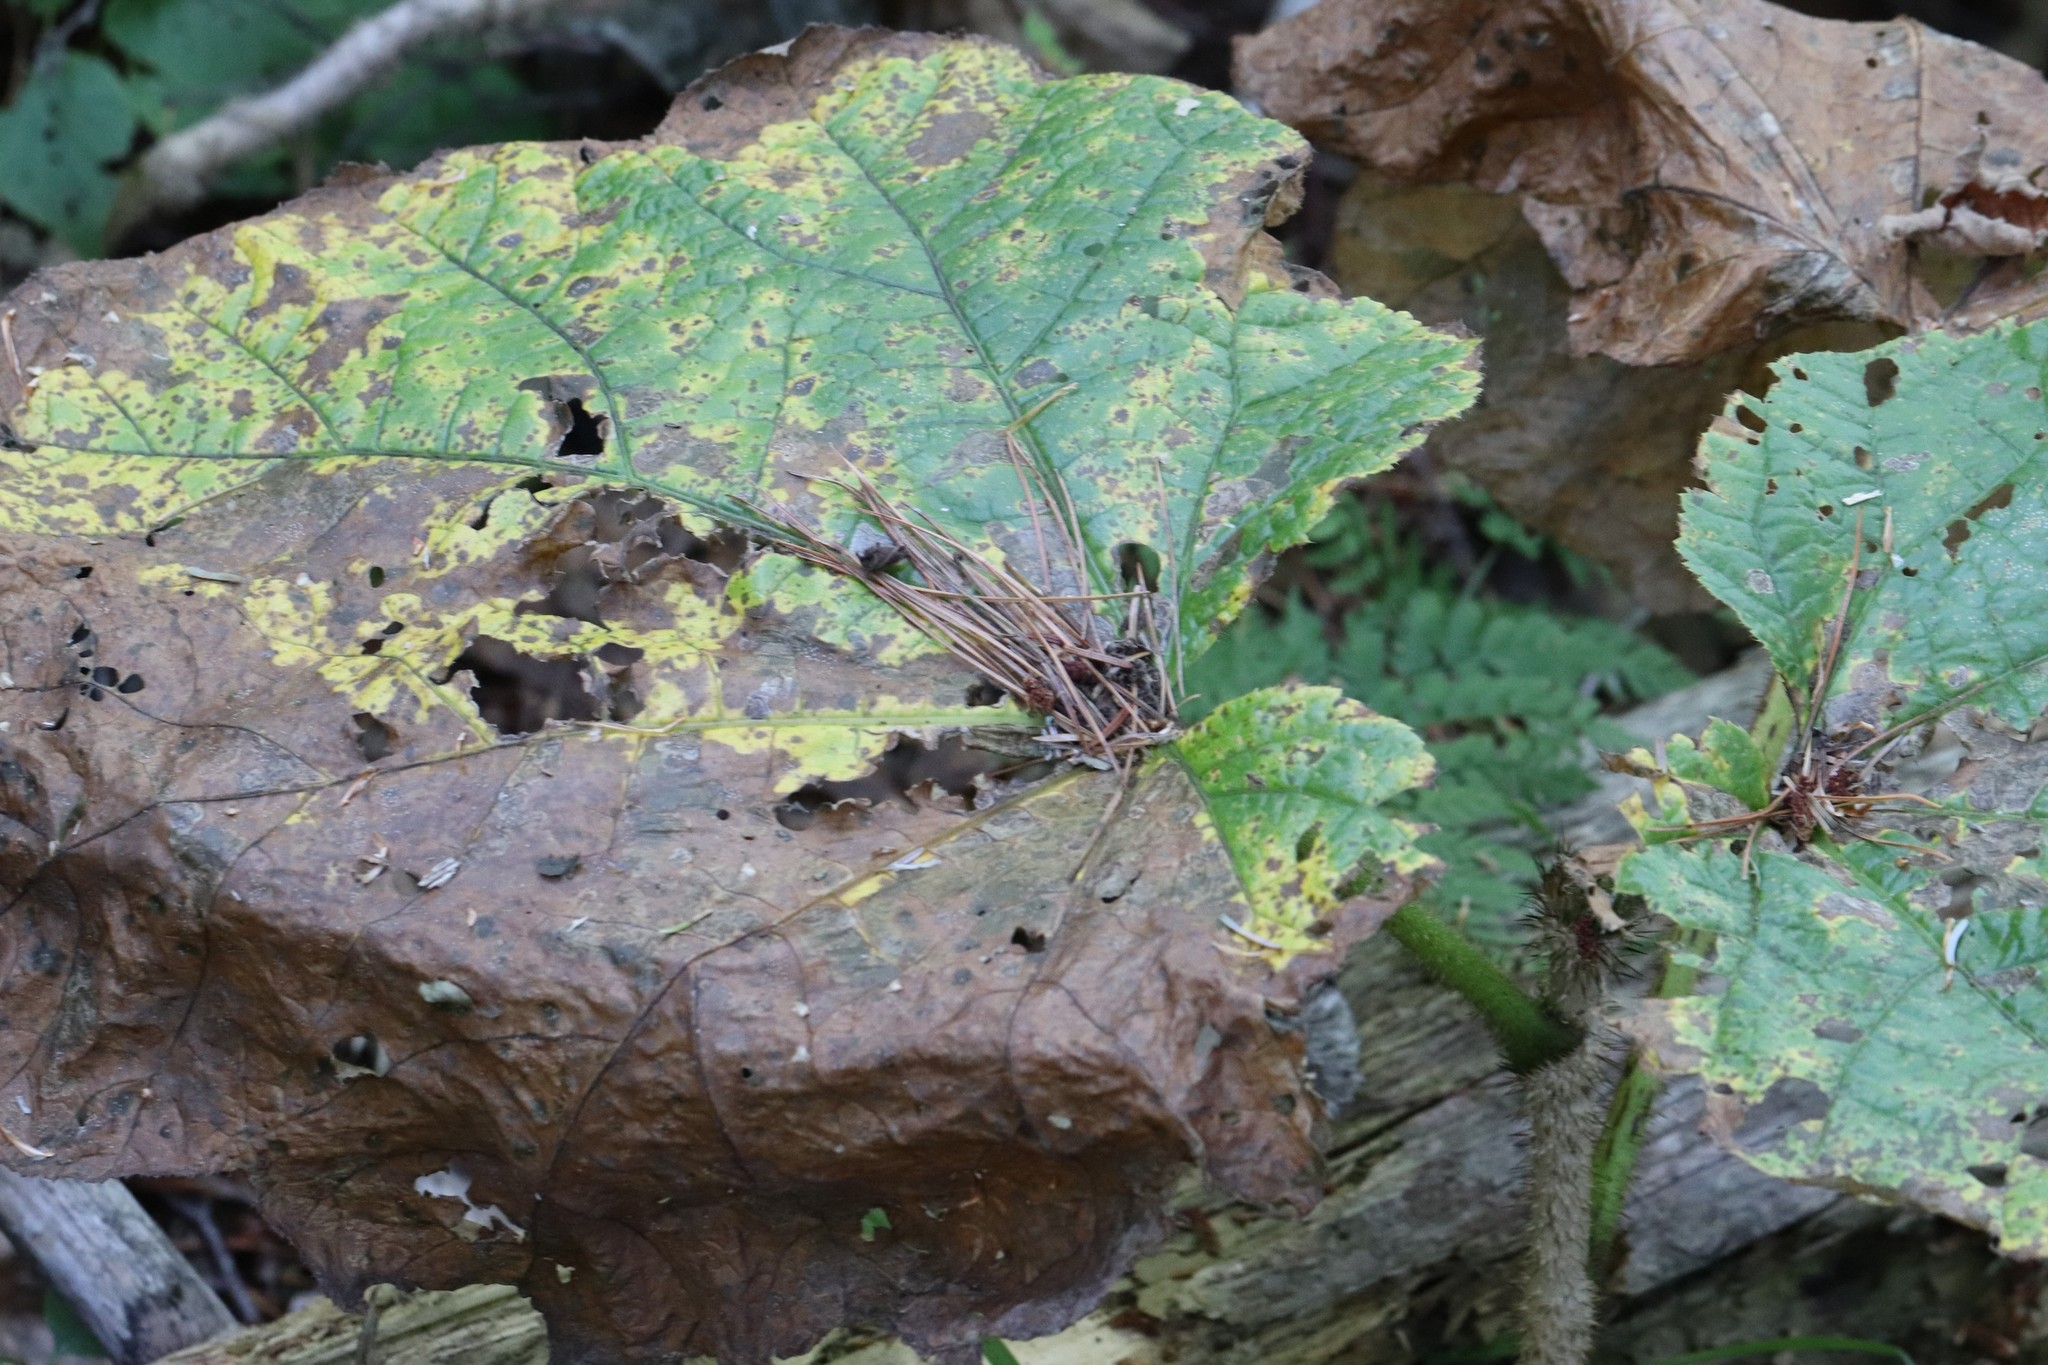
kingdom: Plantae
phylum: Tracheophyta
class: Magnoliopsida
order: Apiales
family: Araliaceae
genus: Oplopanax
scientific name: Oplopanax elatus
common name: Japanese devil's-club
